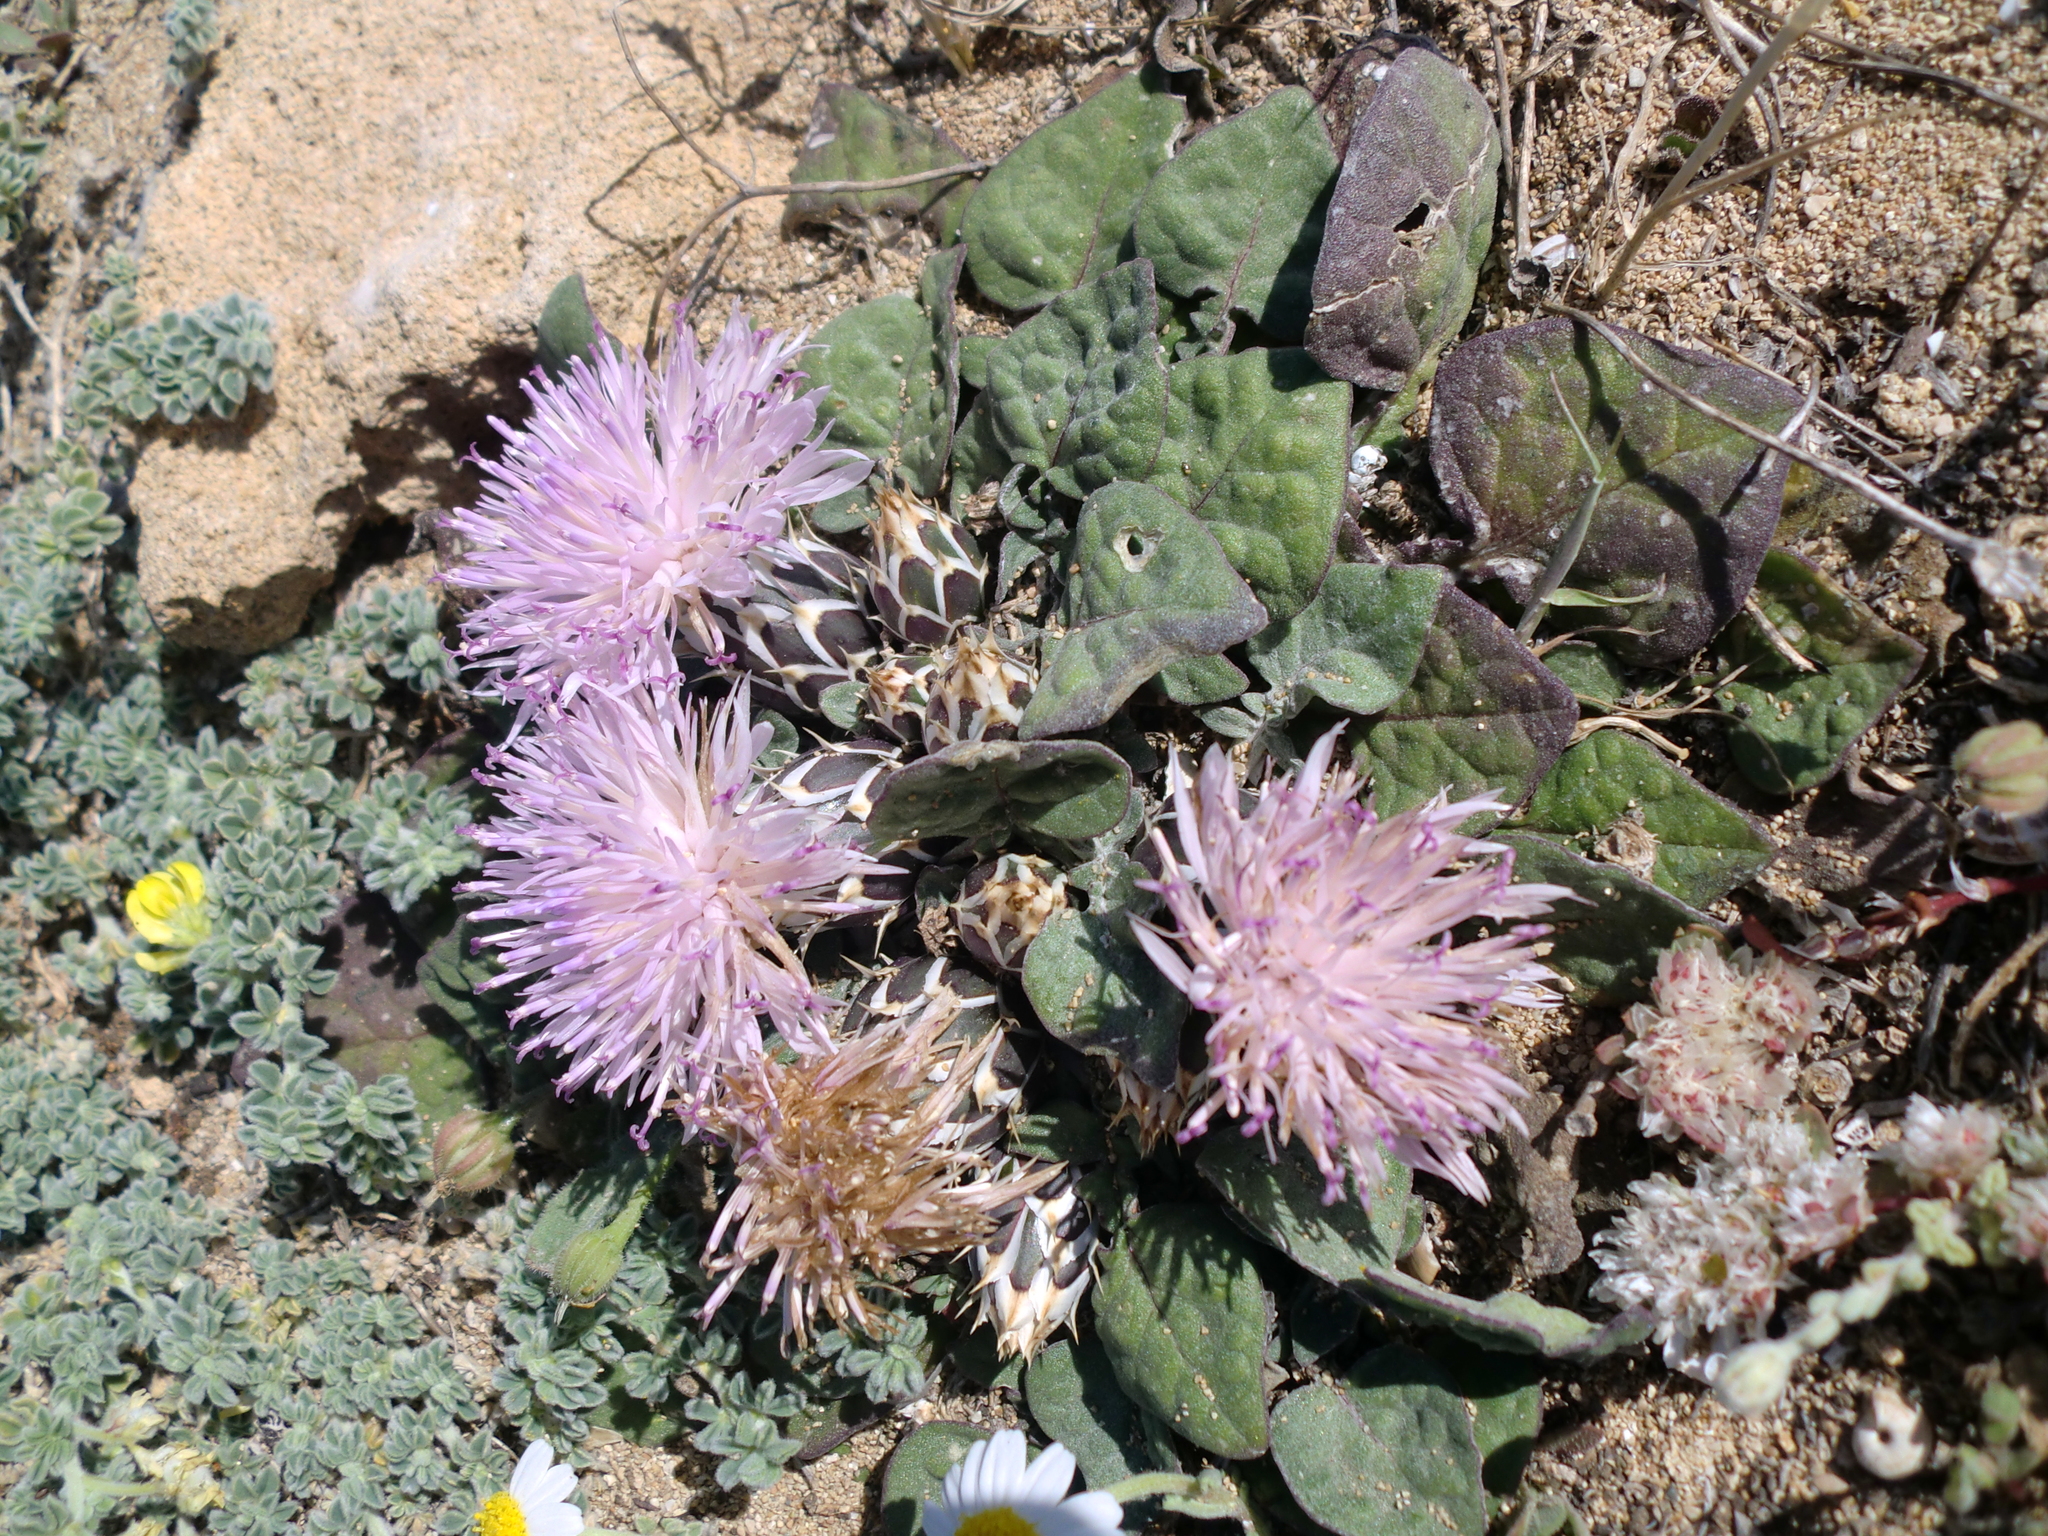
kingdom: Plantae
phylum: Tracheophyta
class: Magnoliopsida
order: Asterales
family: Asteraceae
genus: Crocodilium
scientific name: Crocodilium creticum
